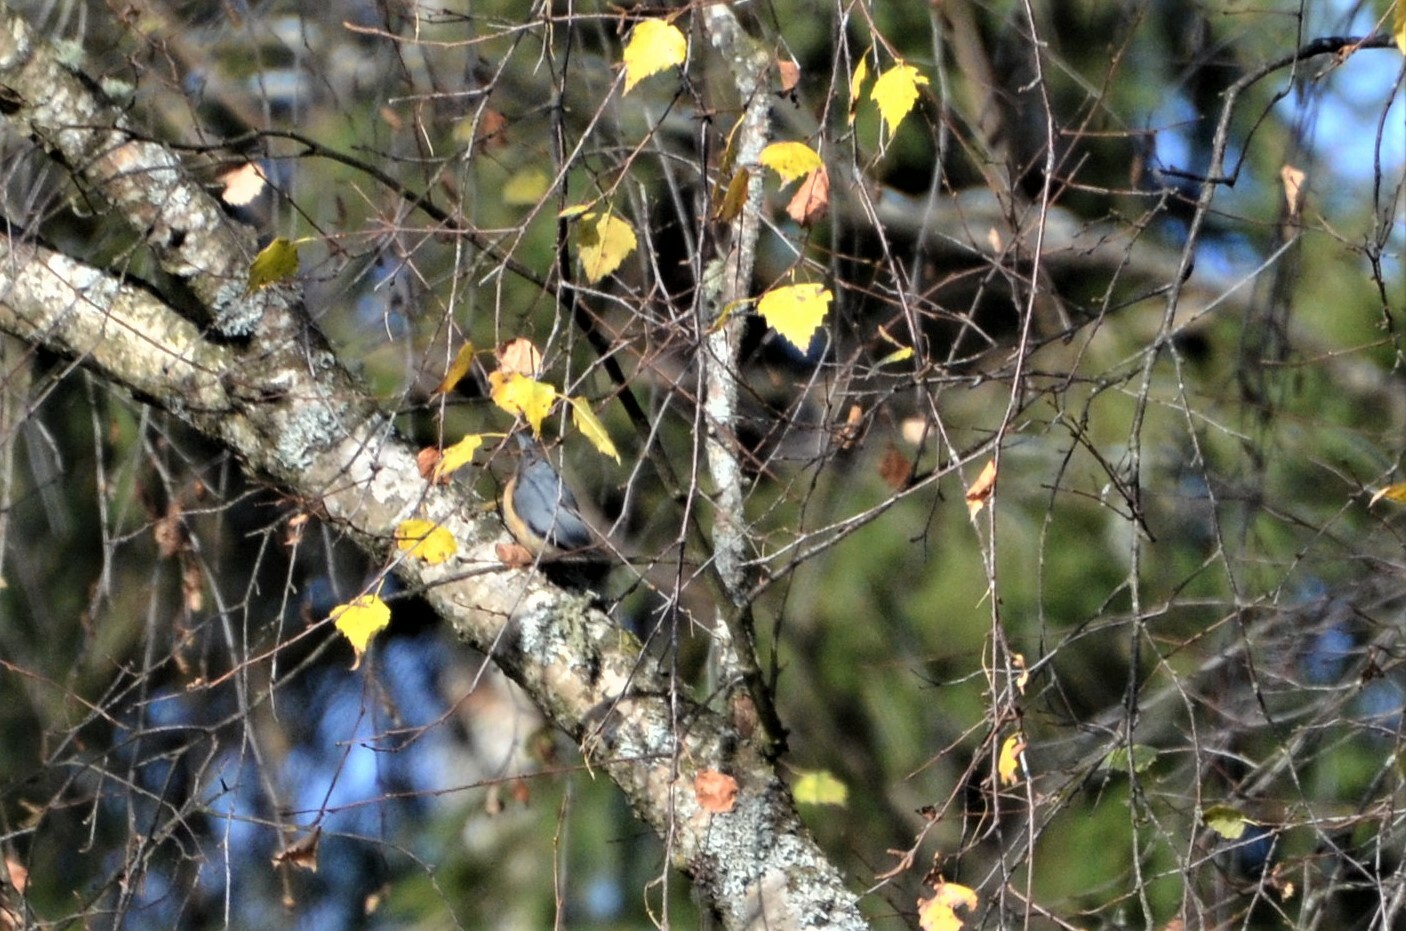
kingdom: Animalia
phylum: Chordata
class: Aves
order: Passeriformes
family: Sittidae
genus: Sitta
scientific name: Sitta europaea
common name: Eurasian nuthatch
